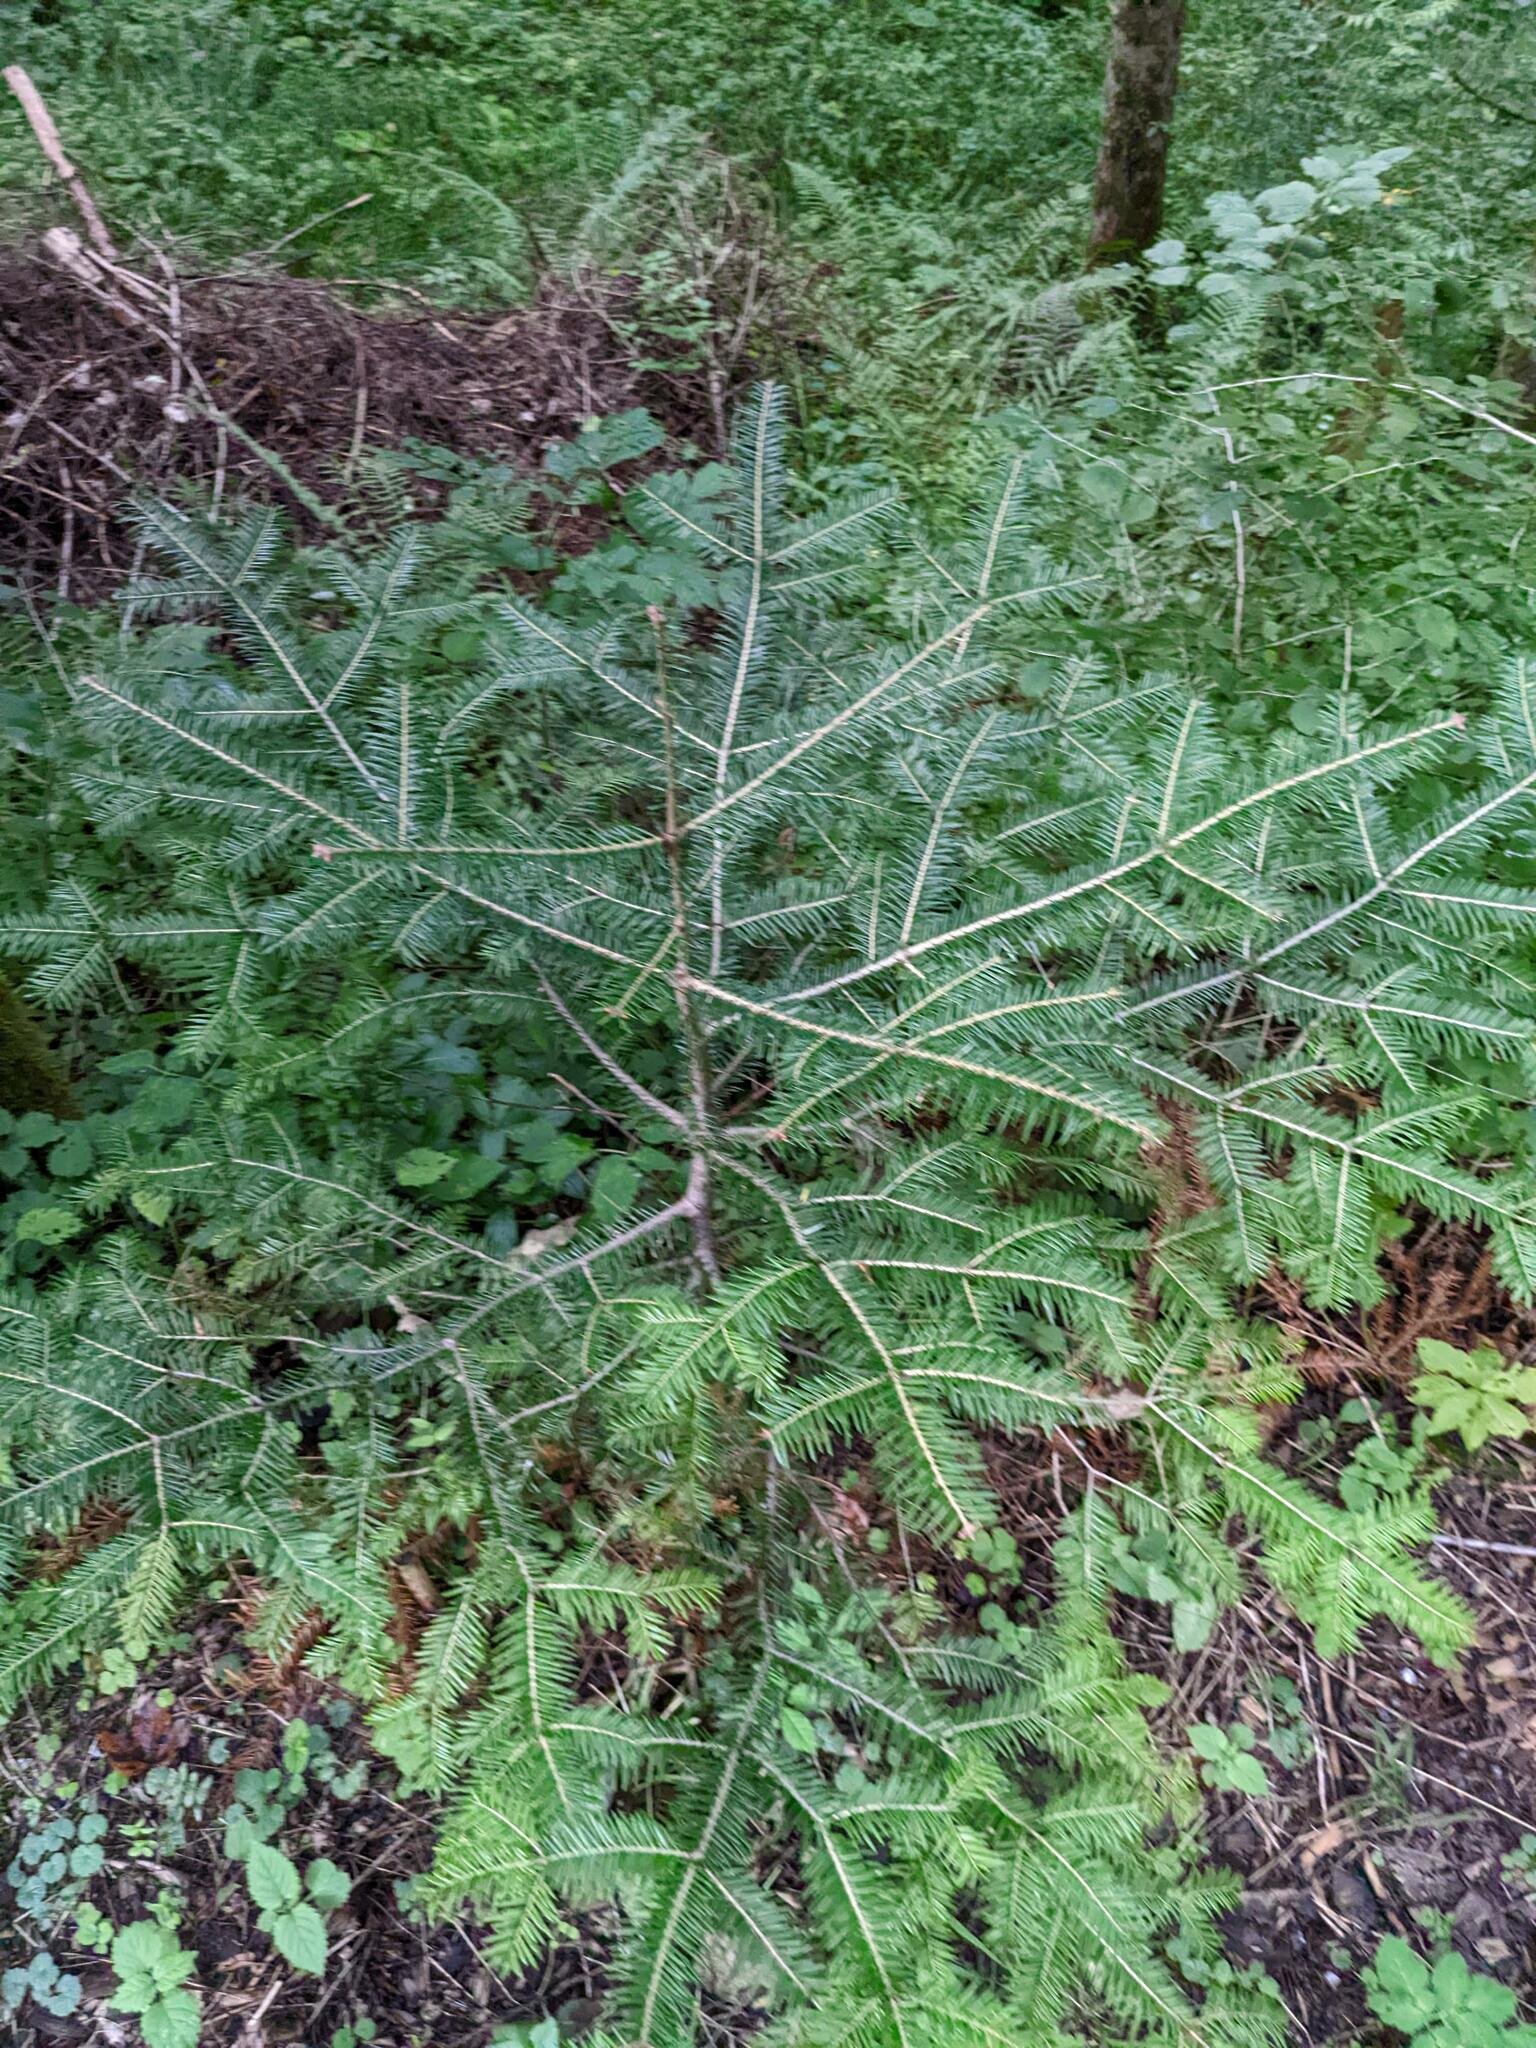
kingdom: Plantae
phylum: Tracheophyta
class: Pinopsida
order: Pinales
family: Pinaceae
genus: Abies
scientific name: Abies alba
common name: Silver fir
